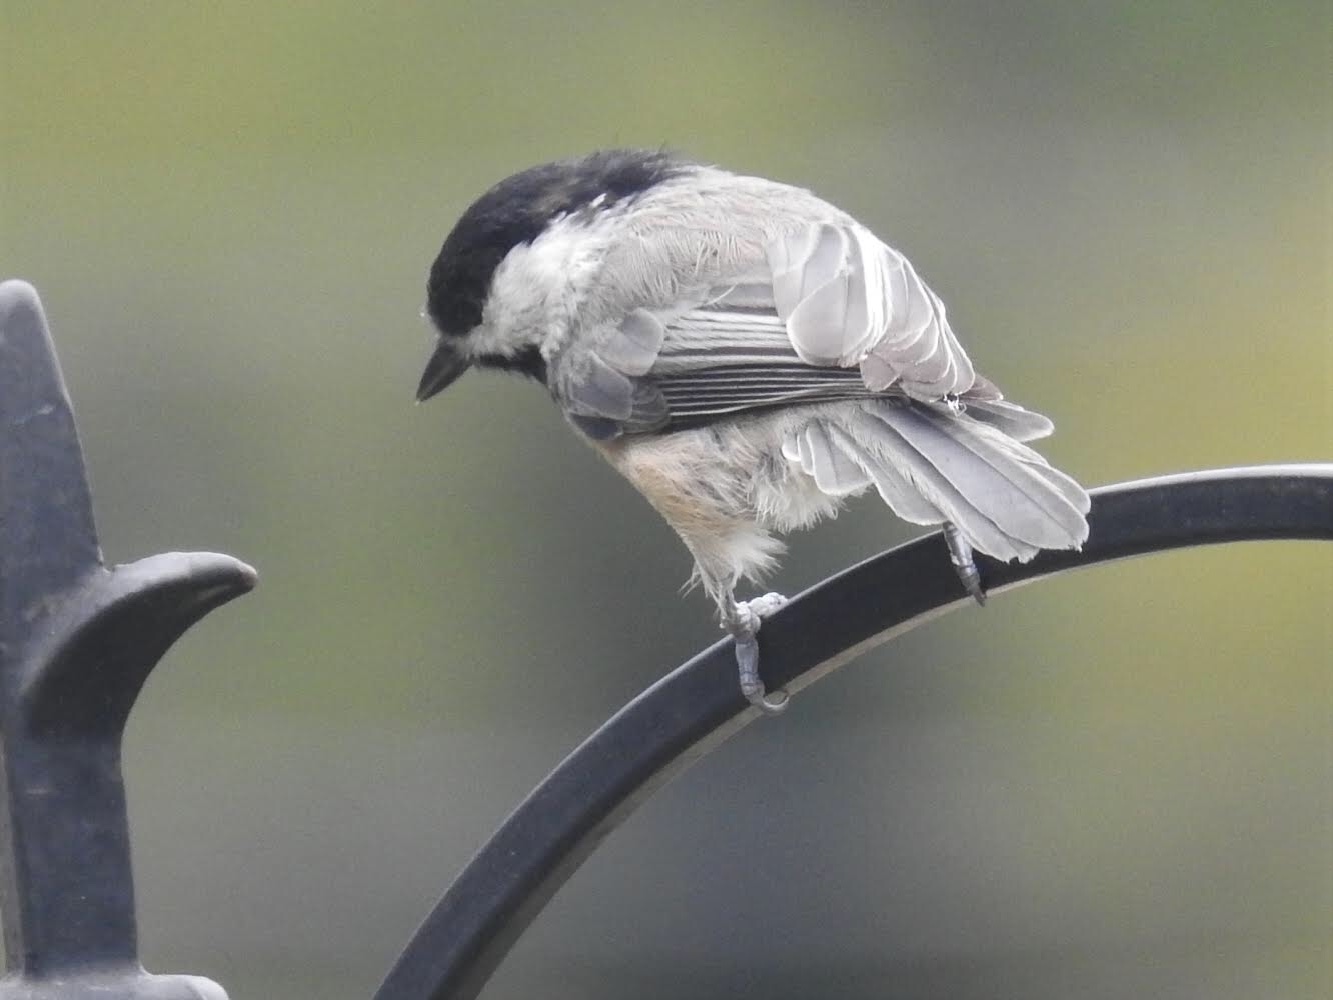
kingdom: Animalia
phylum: Chordata
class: Aves
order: Passeriformes
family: Paridae
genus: Poecile
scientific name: Poecile carolinensis
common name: Carolina chickadee
